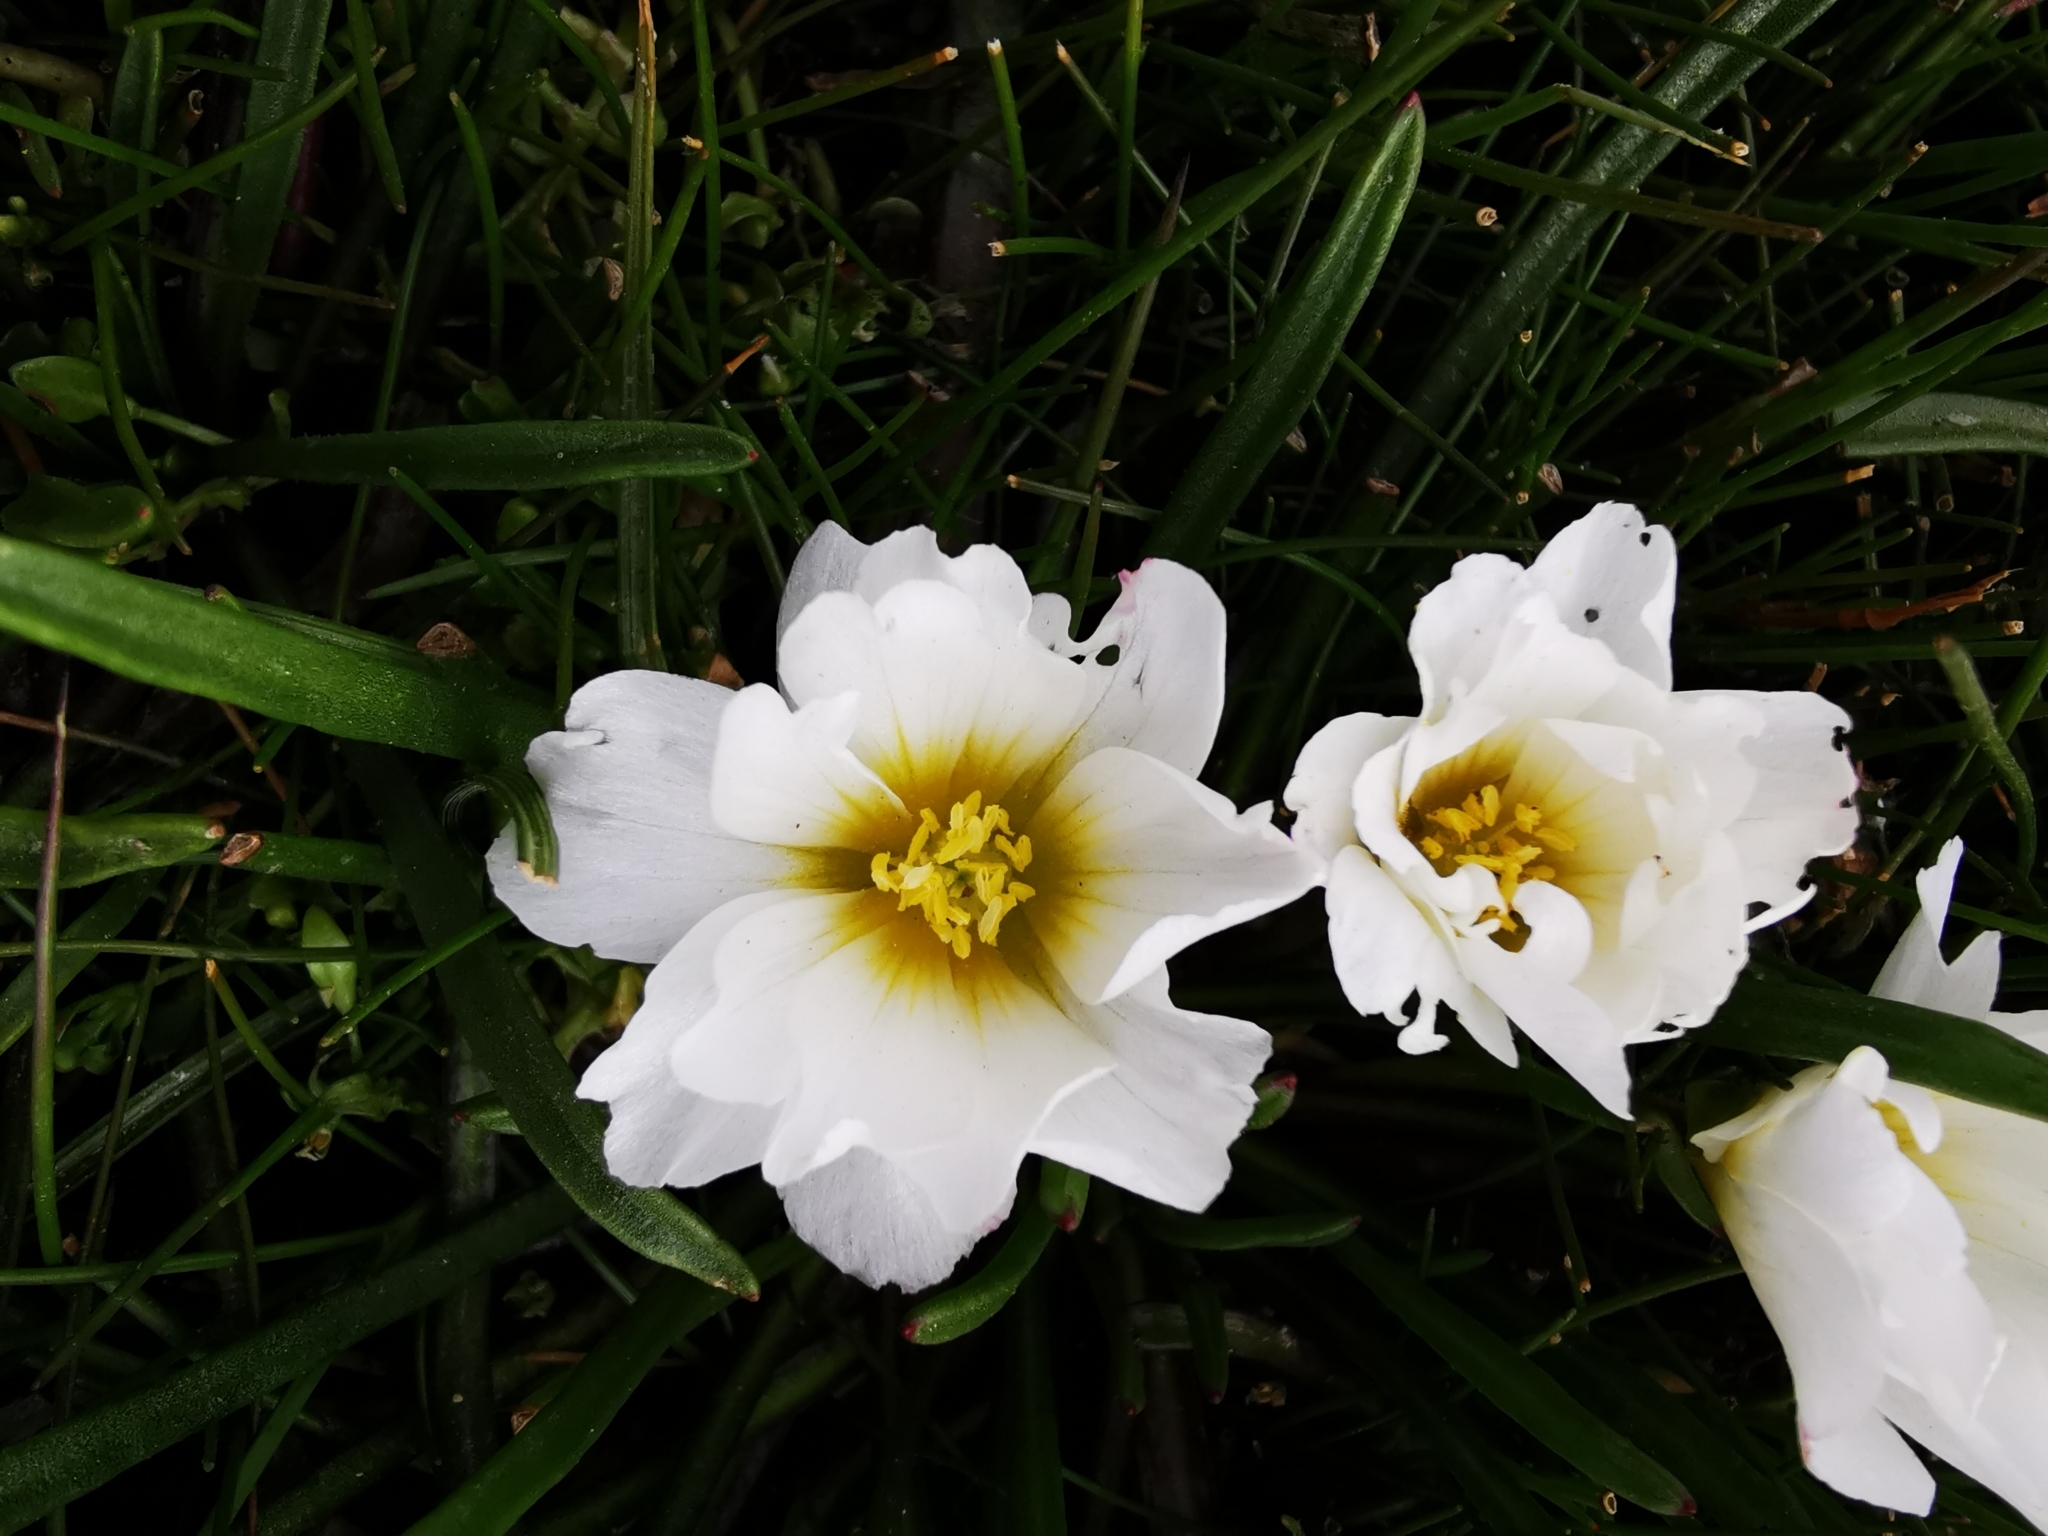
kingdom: Plantae
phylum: Tracheophyta
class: Magnoliopsida
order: Caryophyllales
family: Montiaceae
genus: Calandrinia
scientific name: Calandrinia affinis
